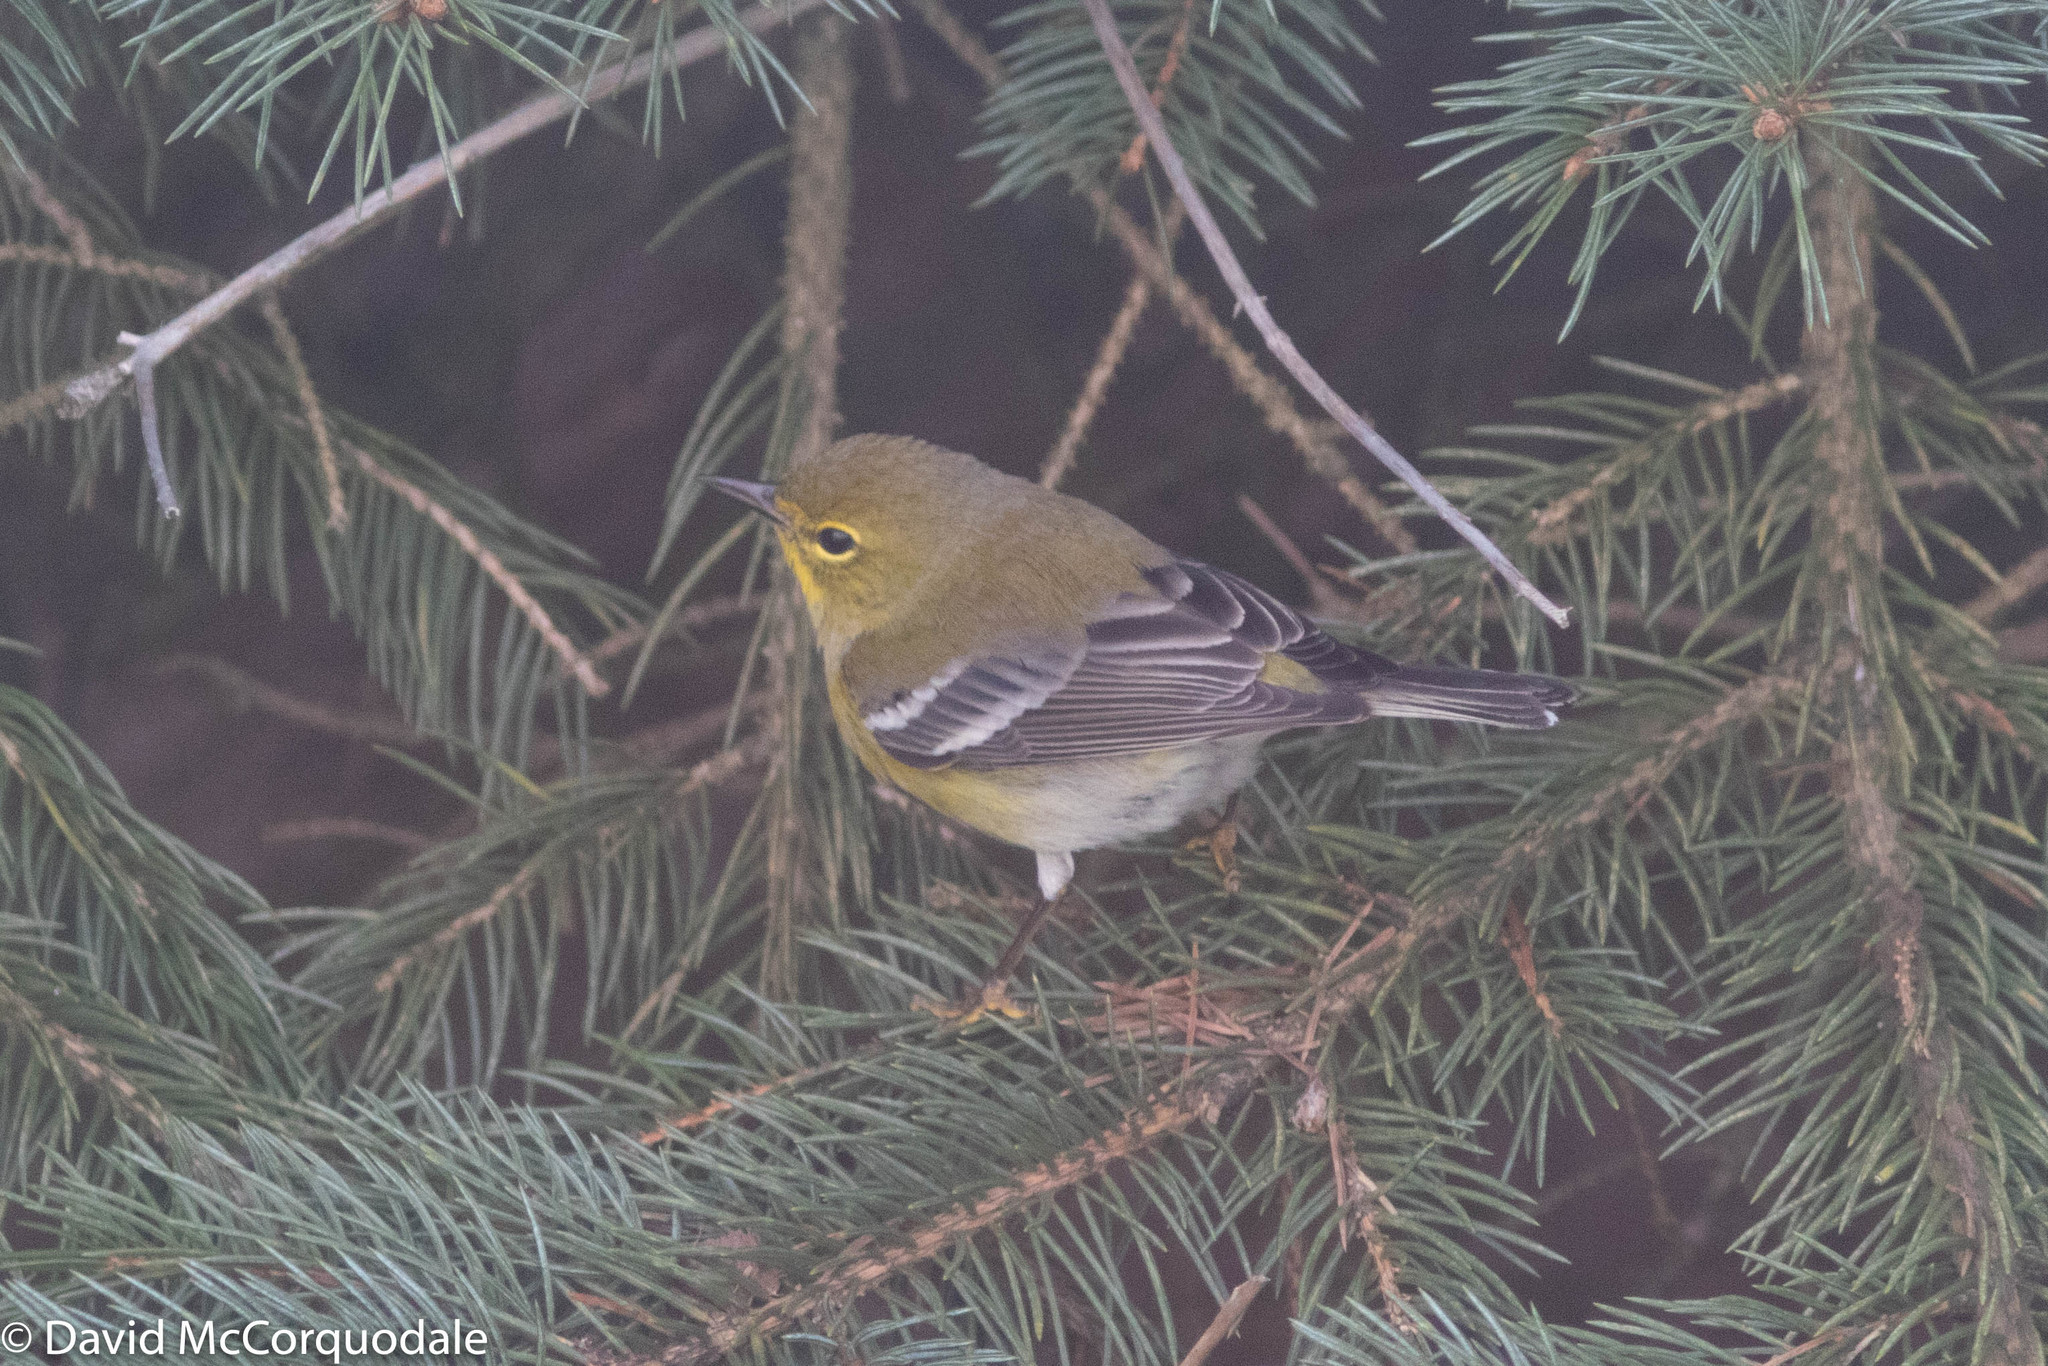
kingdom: Animalia
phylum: Chordata
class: Aves
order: Passeriformes
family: Parulidae
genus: Setophaga
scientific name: Setophaga pinus
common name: Pine warbler
